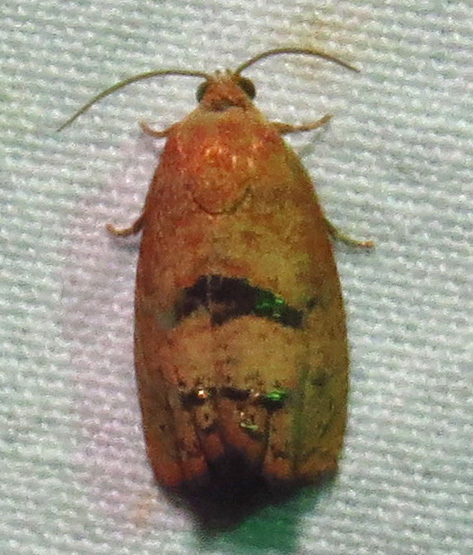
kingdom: Animalia
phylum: Arthropoda
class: Insecta
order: Lepidoptera
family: Tortricidae
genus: Cydia
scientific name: Cydia latiferreana
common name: Filbertworm moth
